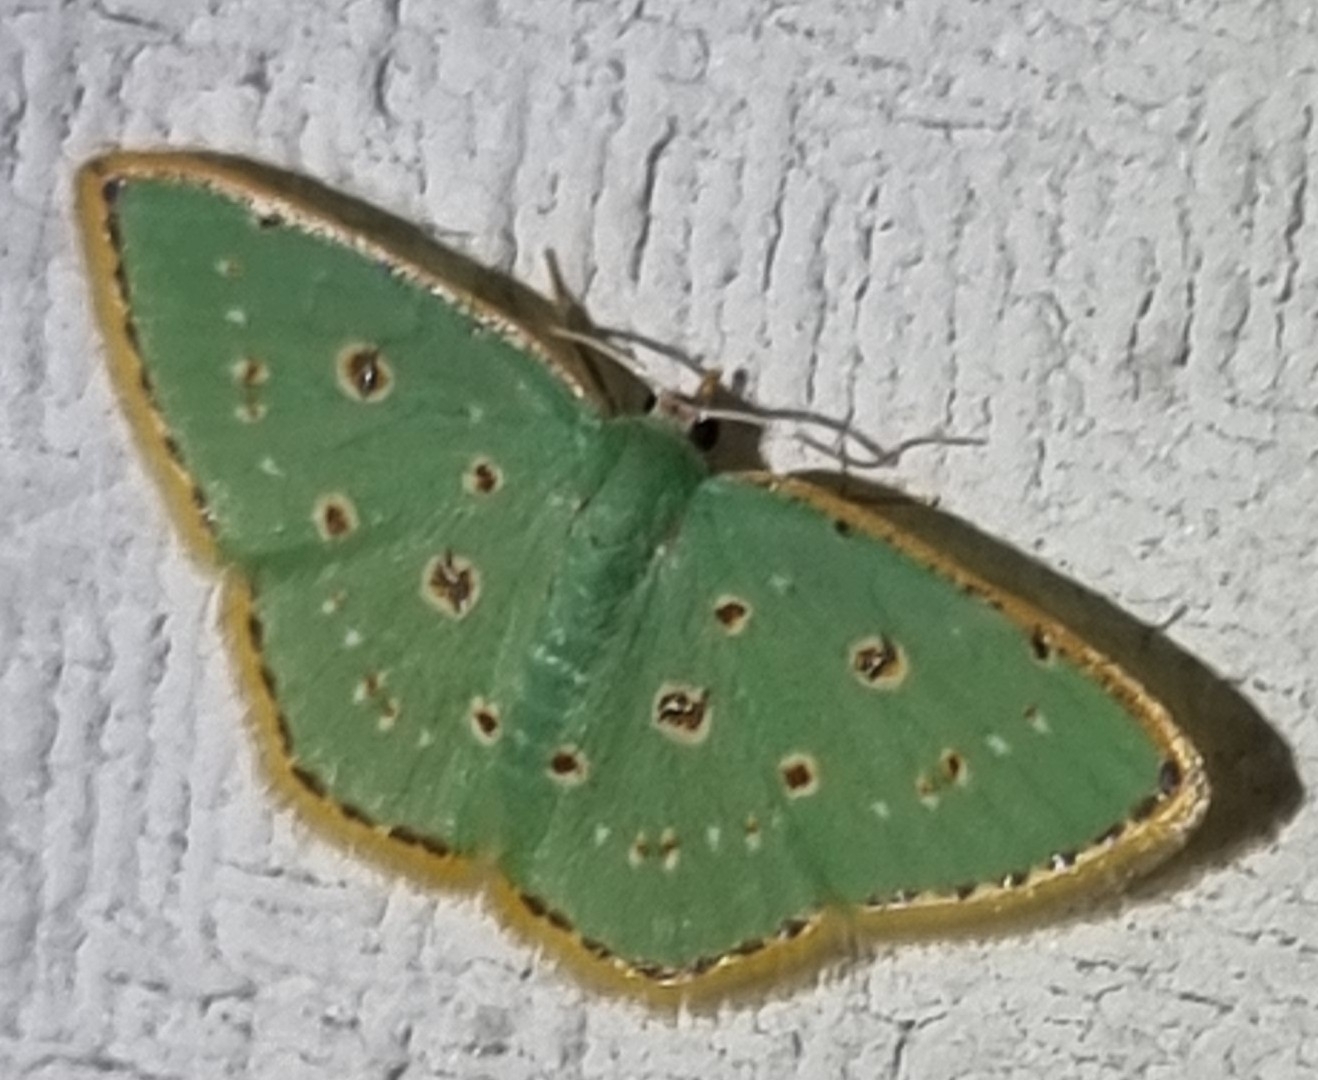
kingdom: Animalia
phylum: Arthropoda
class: Insecta
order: Lepidoptera
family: Geometridae
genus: Comostola
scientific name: Comostola laesaria
